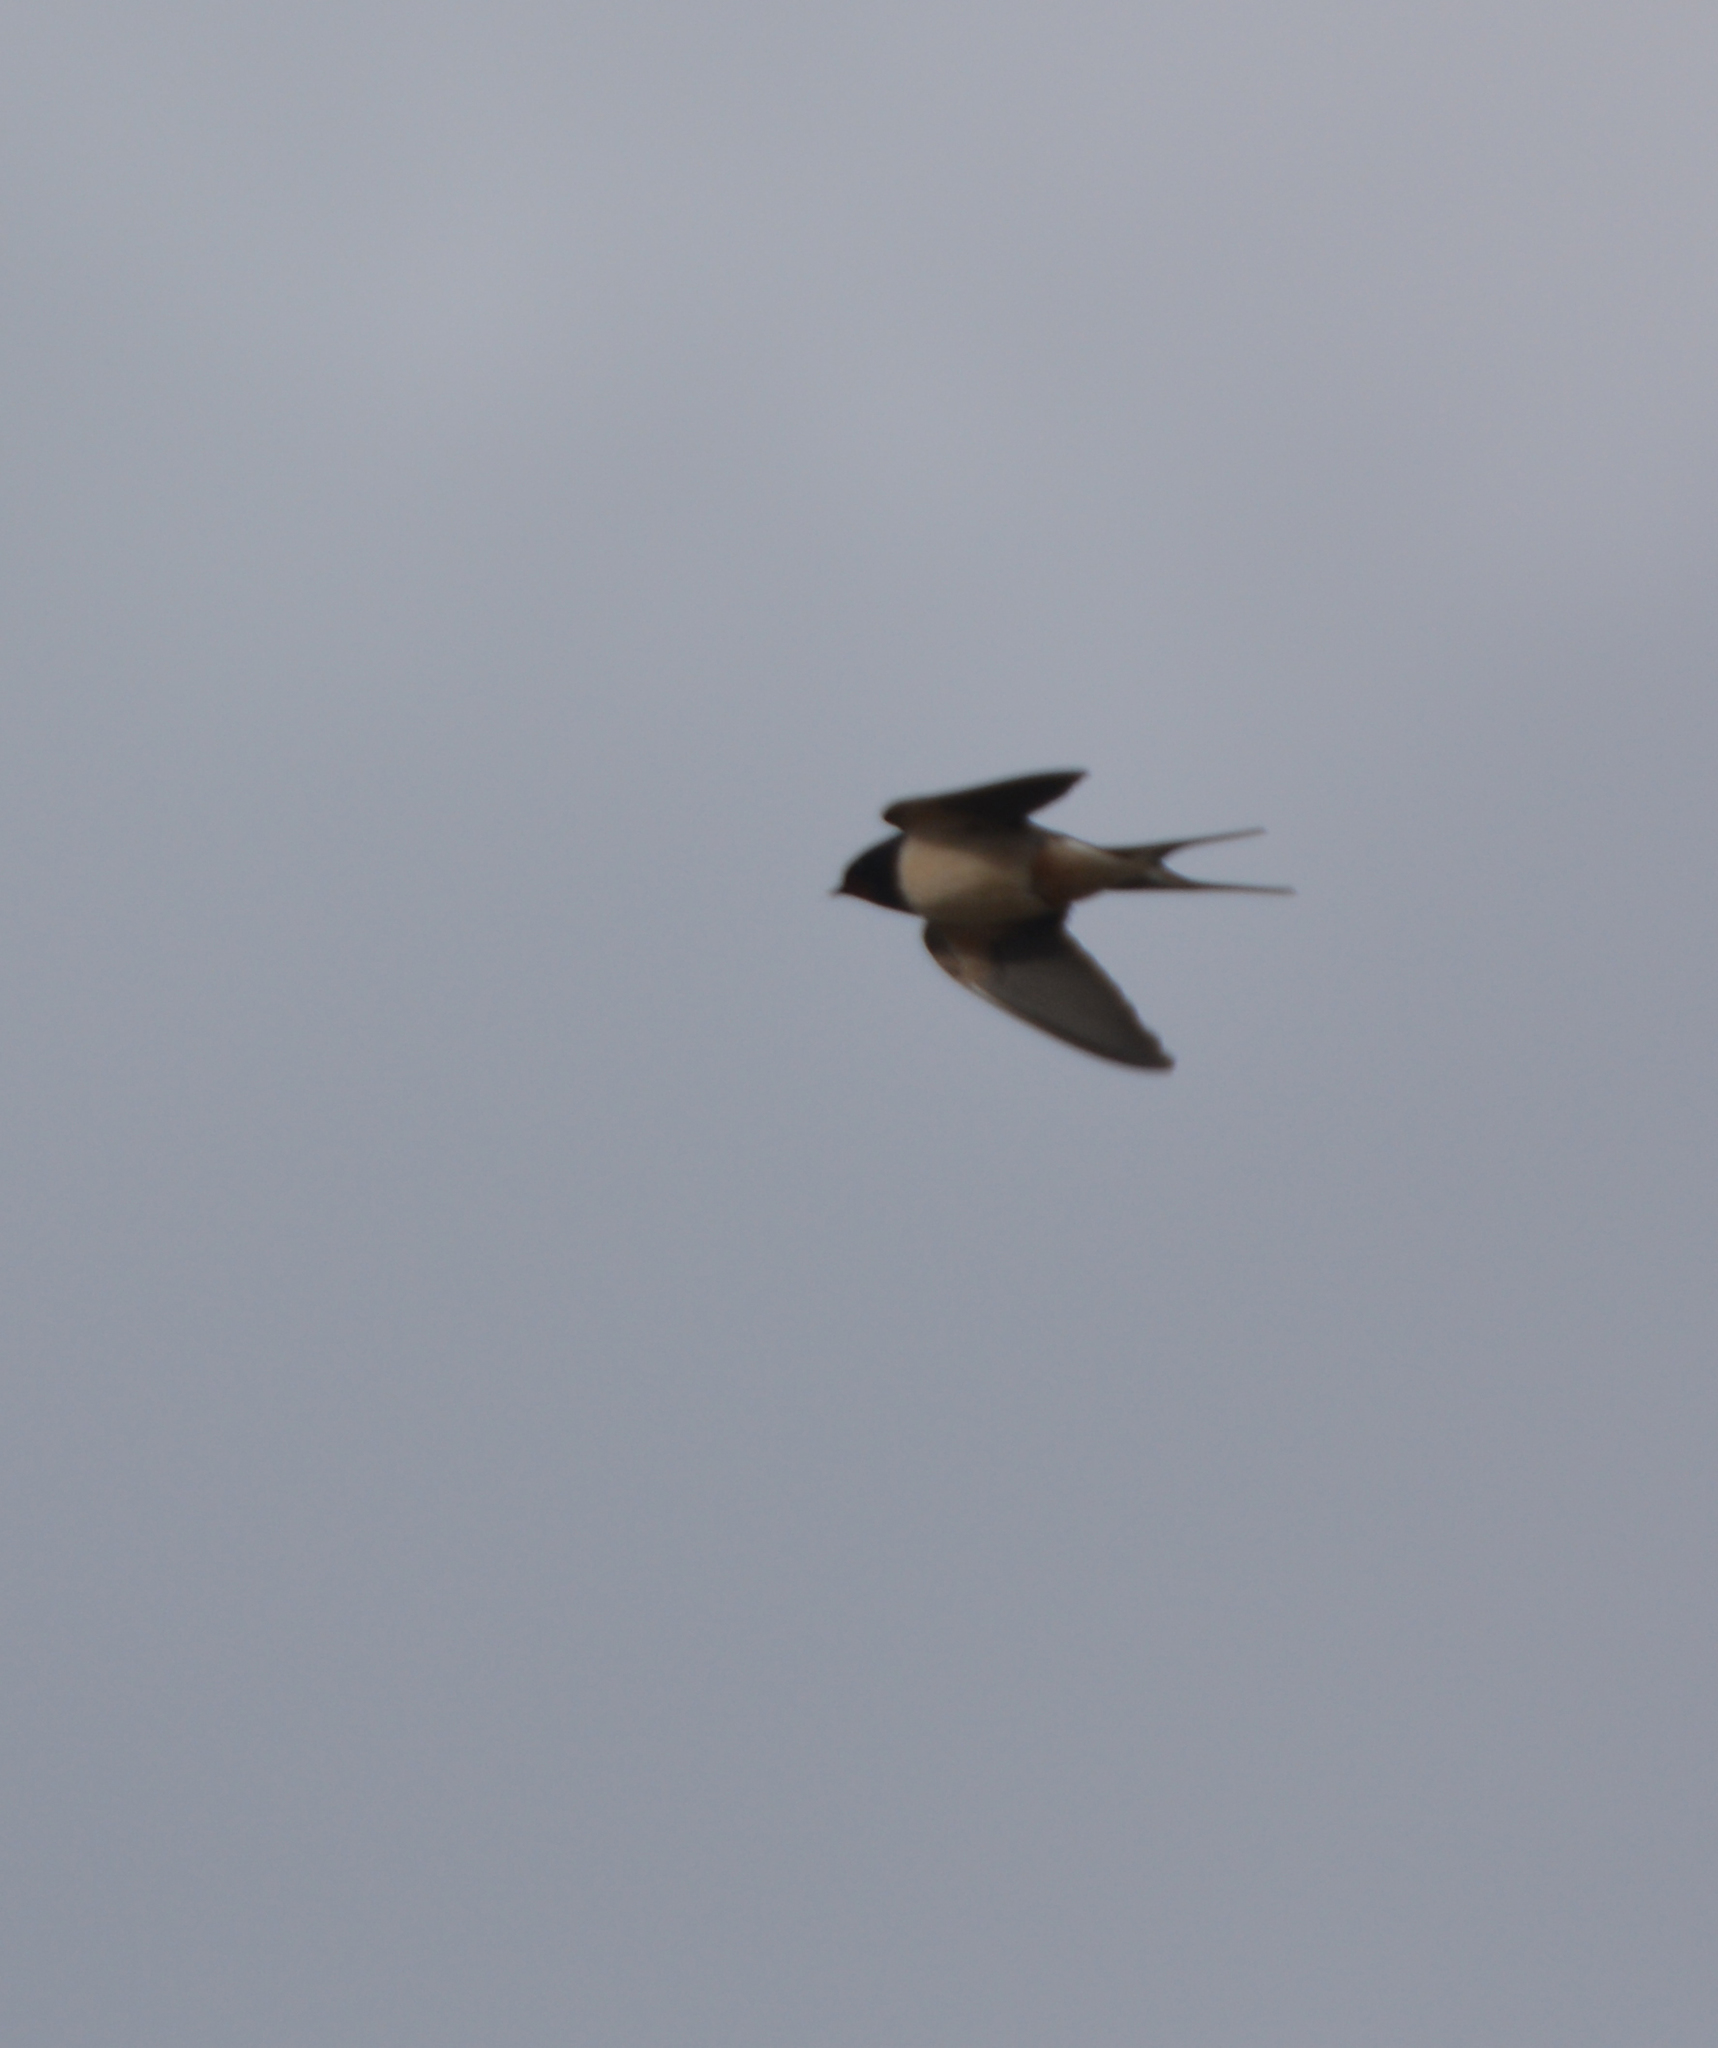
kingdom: Animalia
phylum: Chordata
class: Aves
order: Passeriformes
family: Hirundinidae
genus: Hirundo
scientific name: Hirundo rustica
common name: Barn swallow
